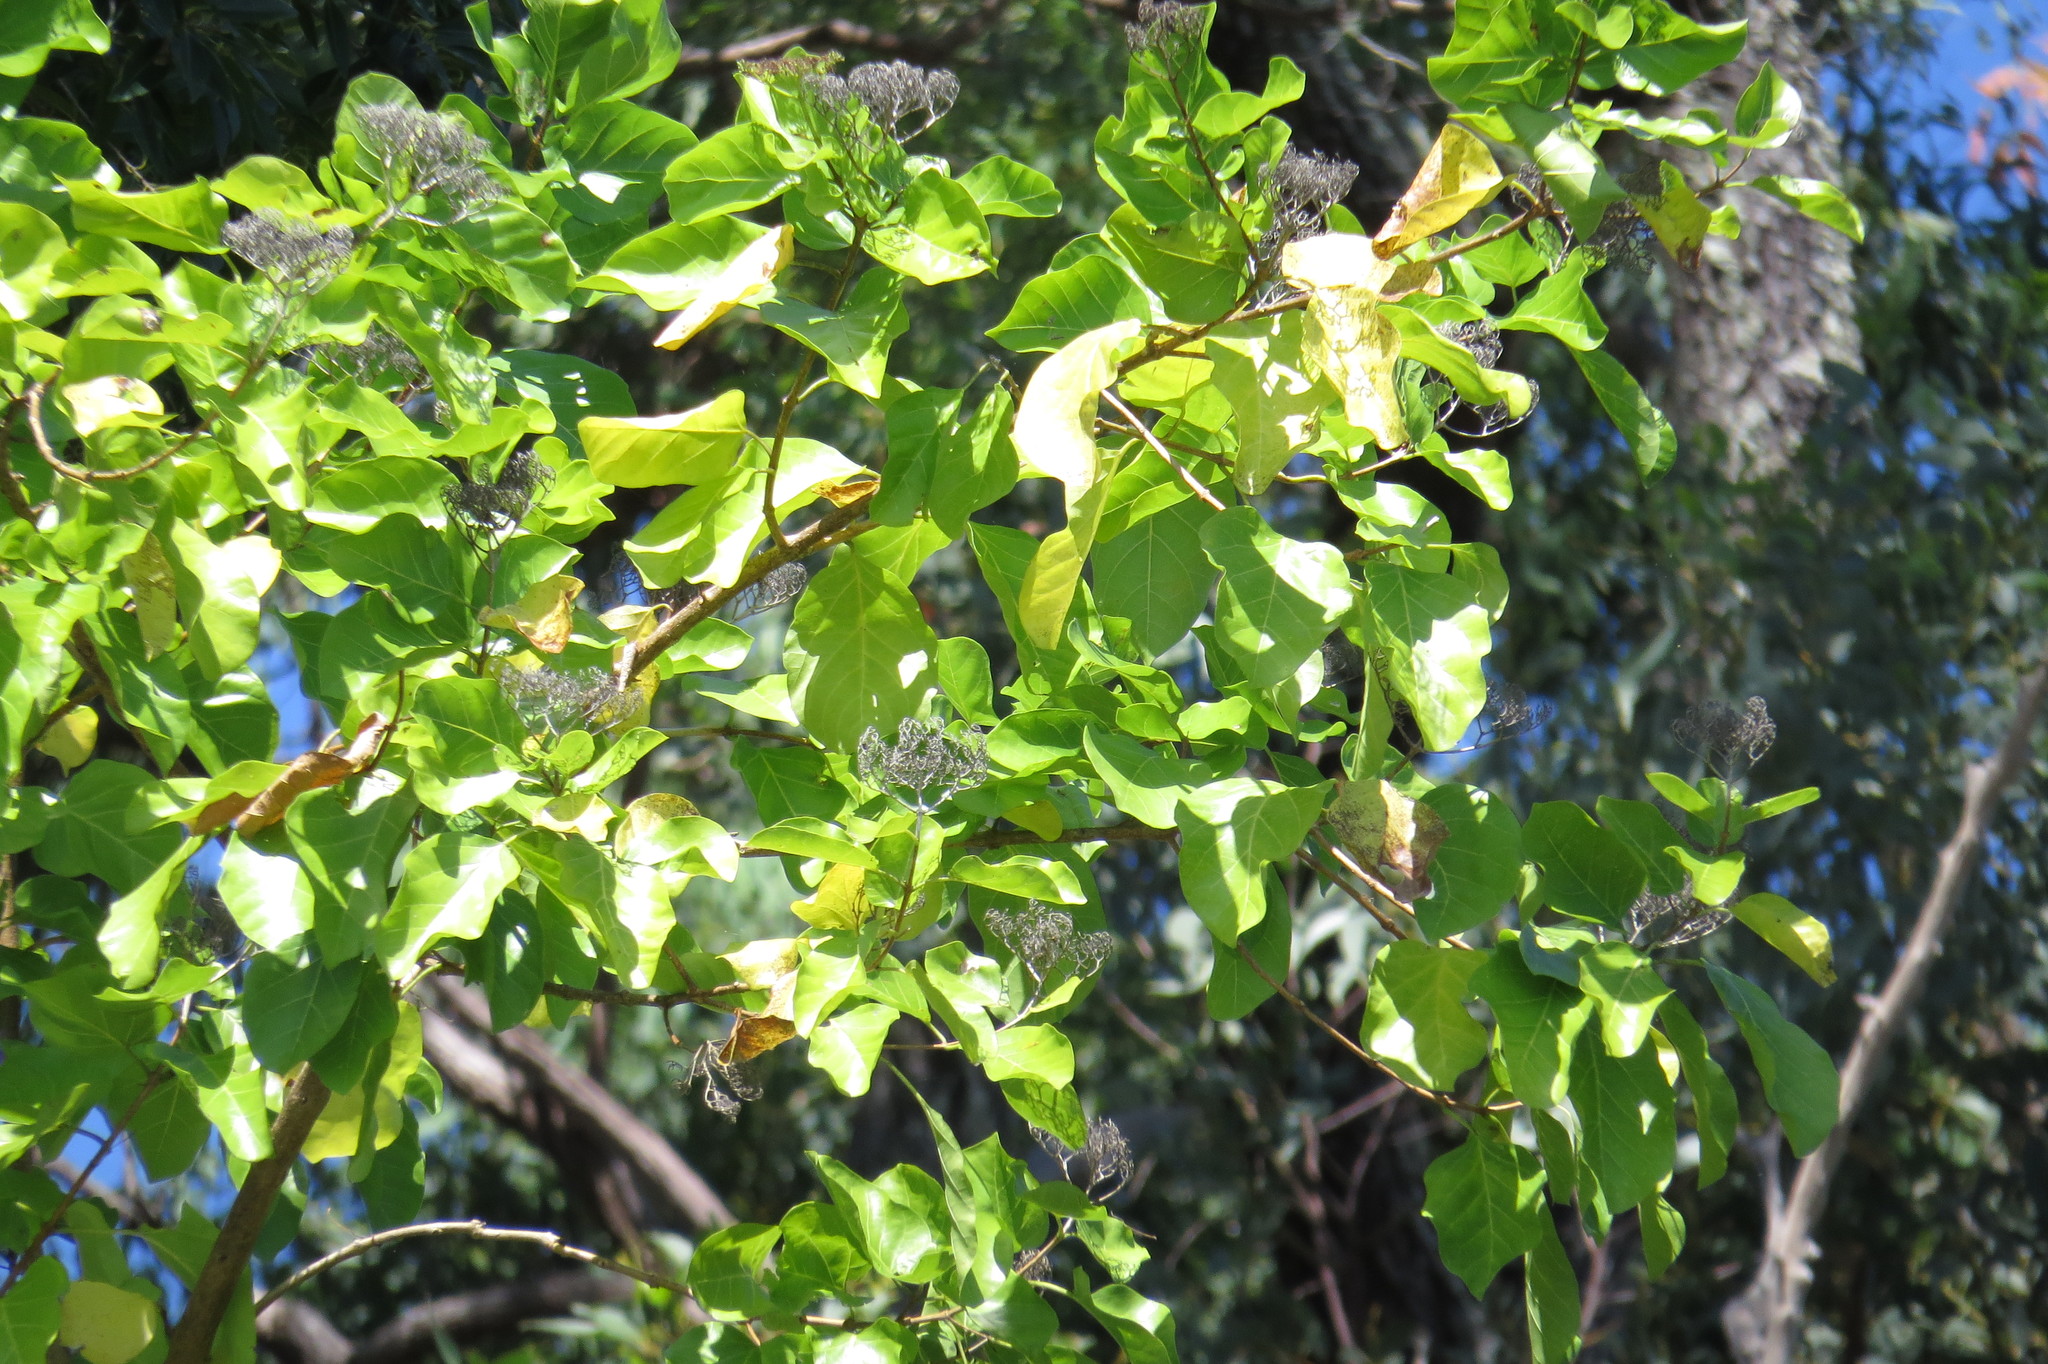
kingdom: Plantae
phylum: Tracheophyta
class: Magnoliopsida
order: Lamiales
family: Lamiaceae
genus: Premna
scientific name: Premna serratifolia
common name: Bastard guelder
